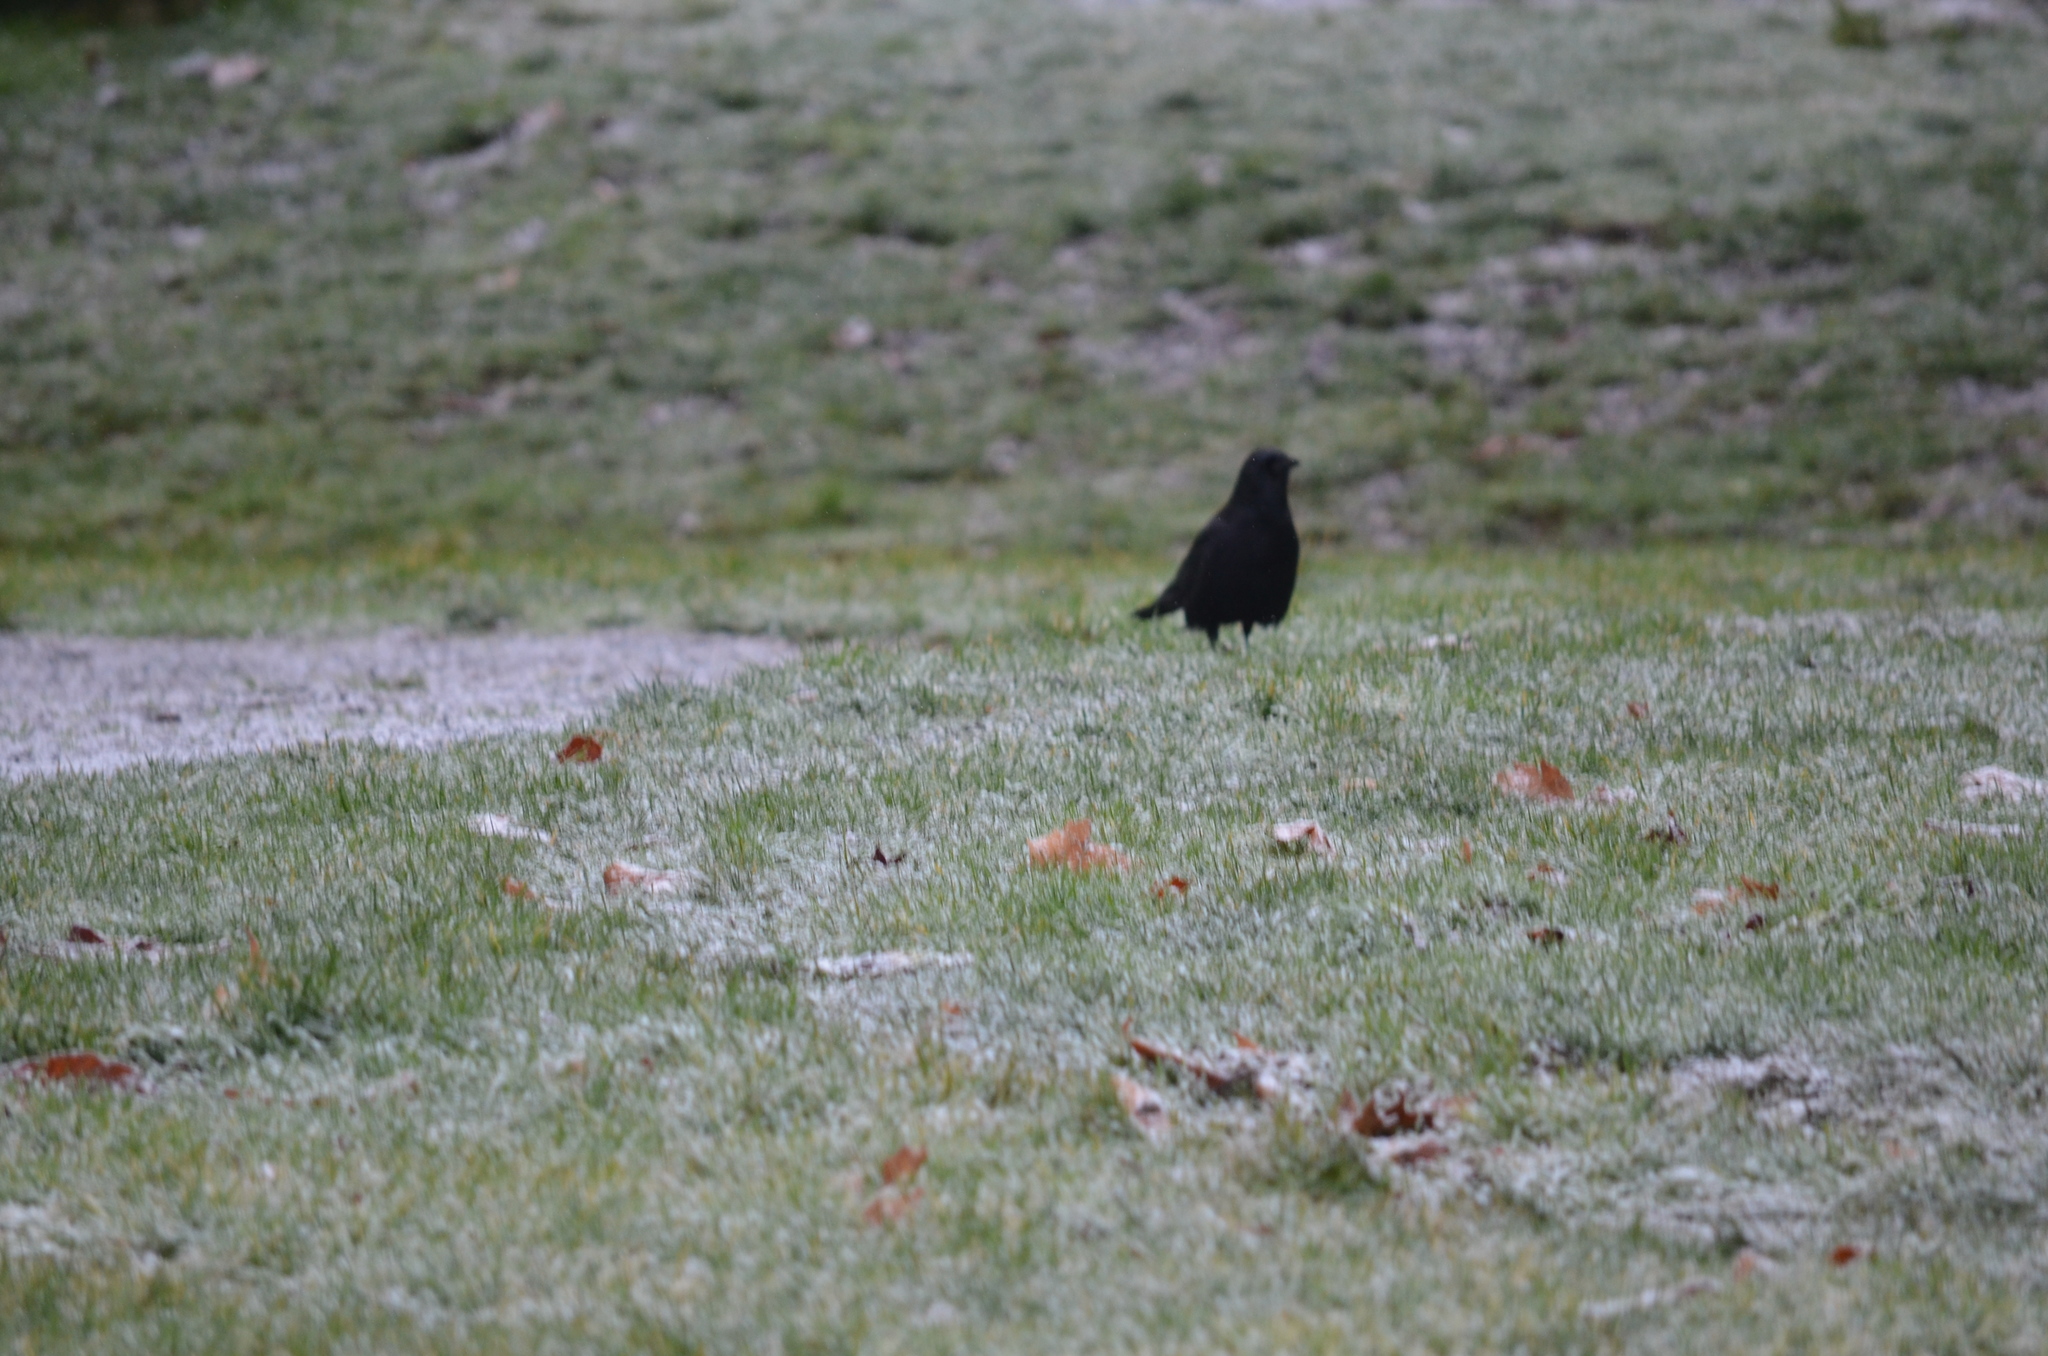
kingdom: Animalia
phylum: Chordata
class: Aves
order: Passeriformes
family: Corvidae
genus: Corvus
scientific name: Corvus brachyrhynchos
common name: American crow
